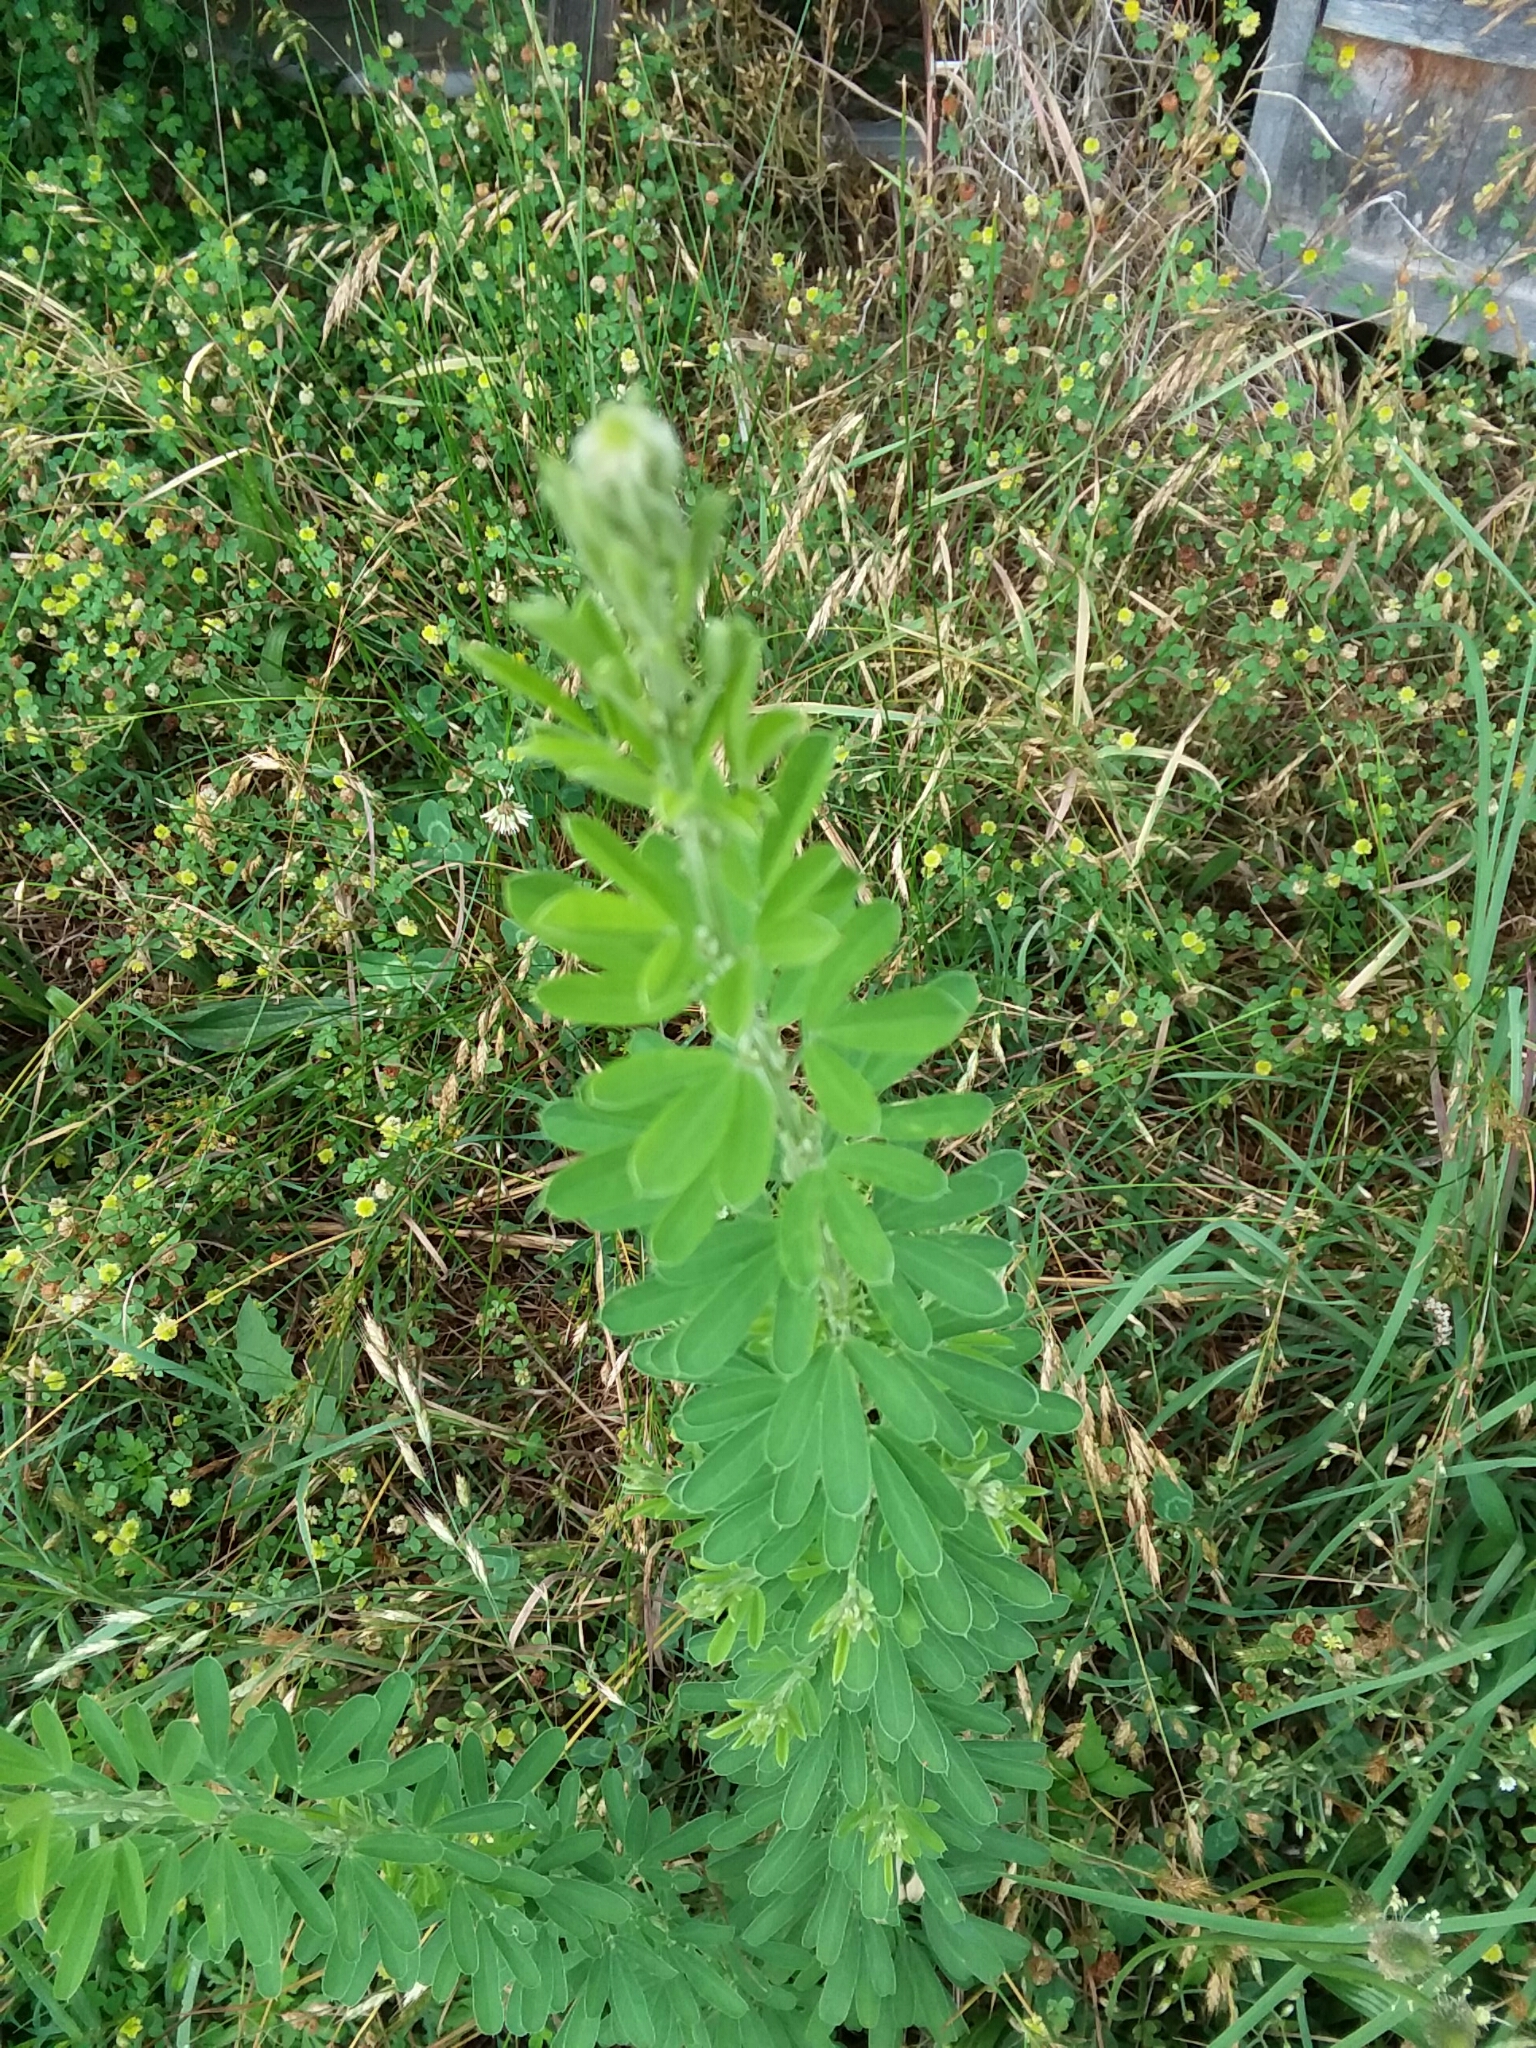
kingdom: Plantae
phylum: Tracheophyta
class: Magnoliopsida
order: Fabales
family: Fabaceae
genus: Lespedeza
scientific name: Lespedeza cuneata
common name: Chinese bush-clover
